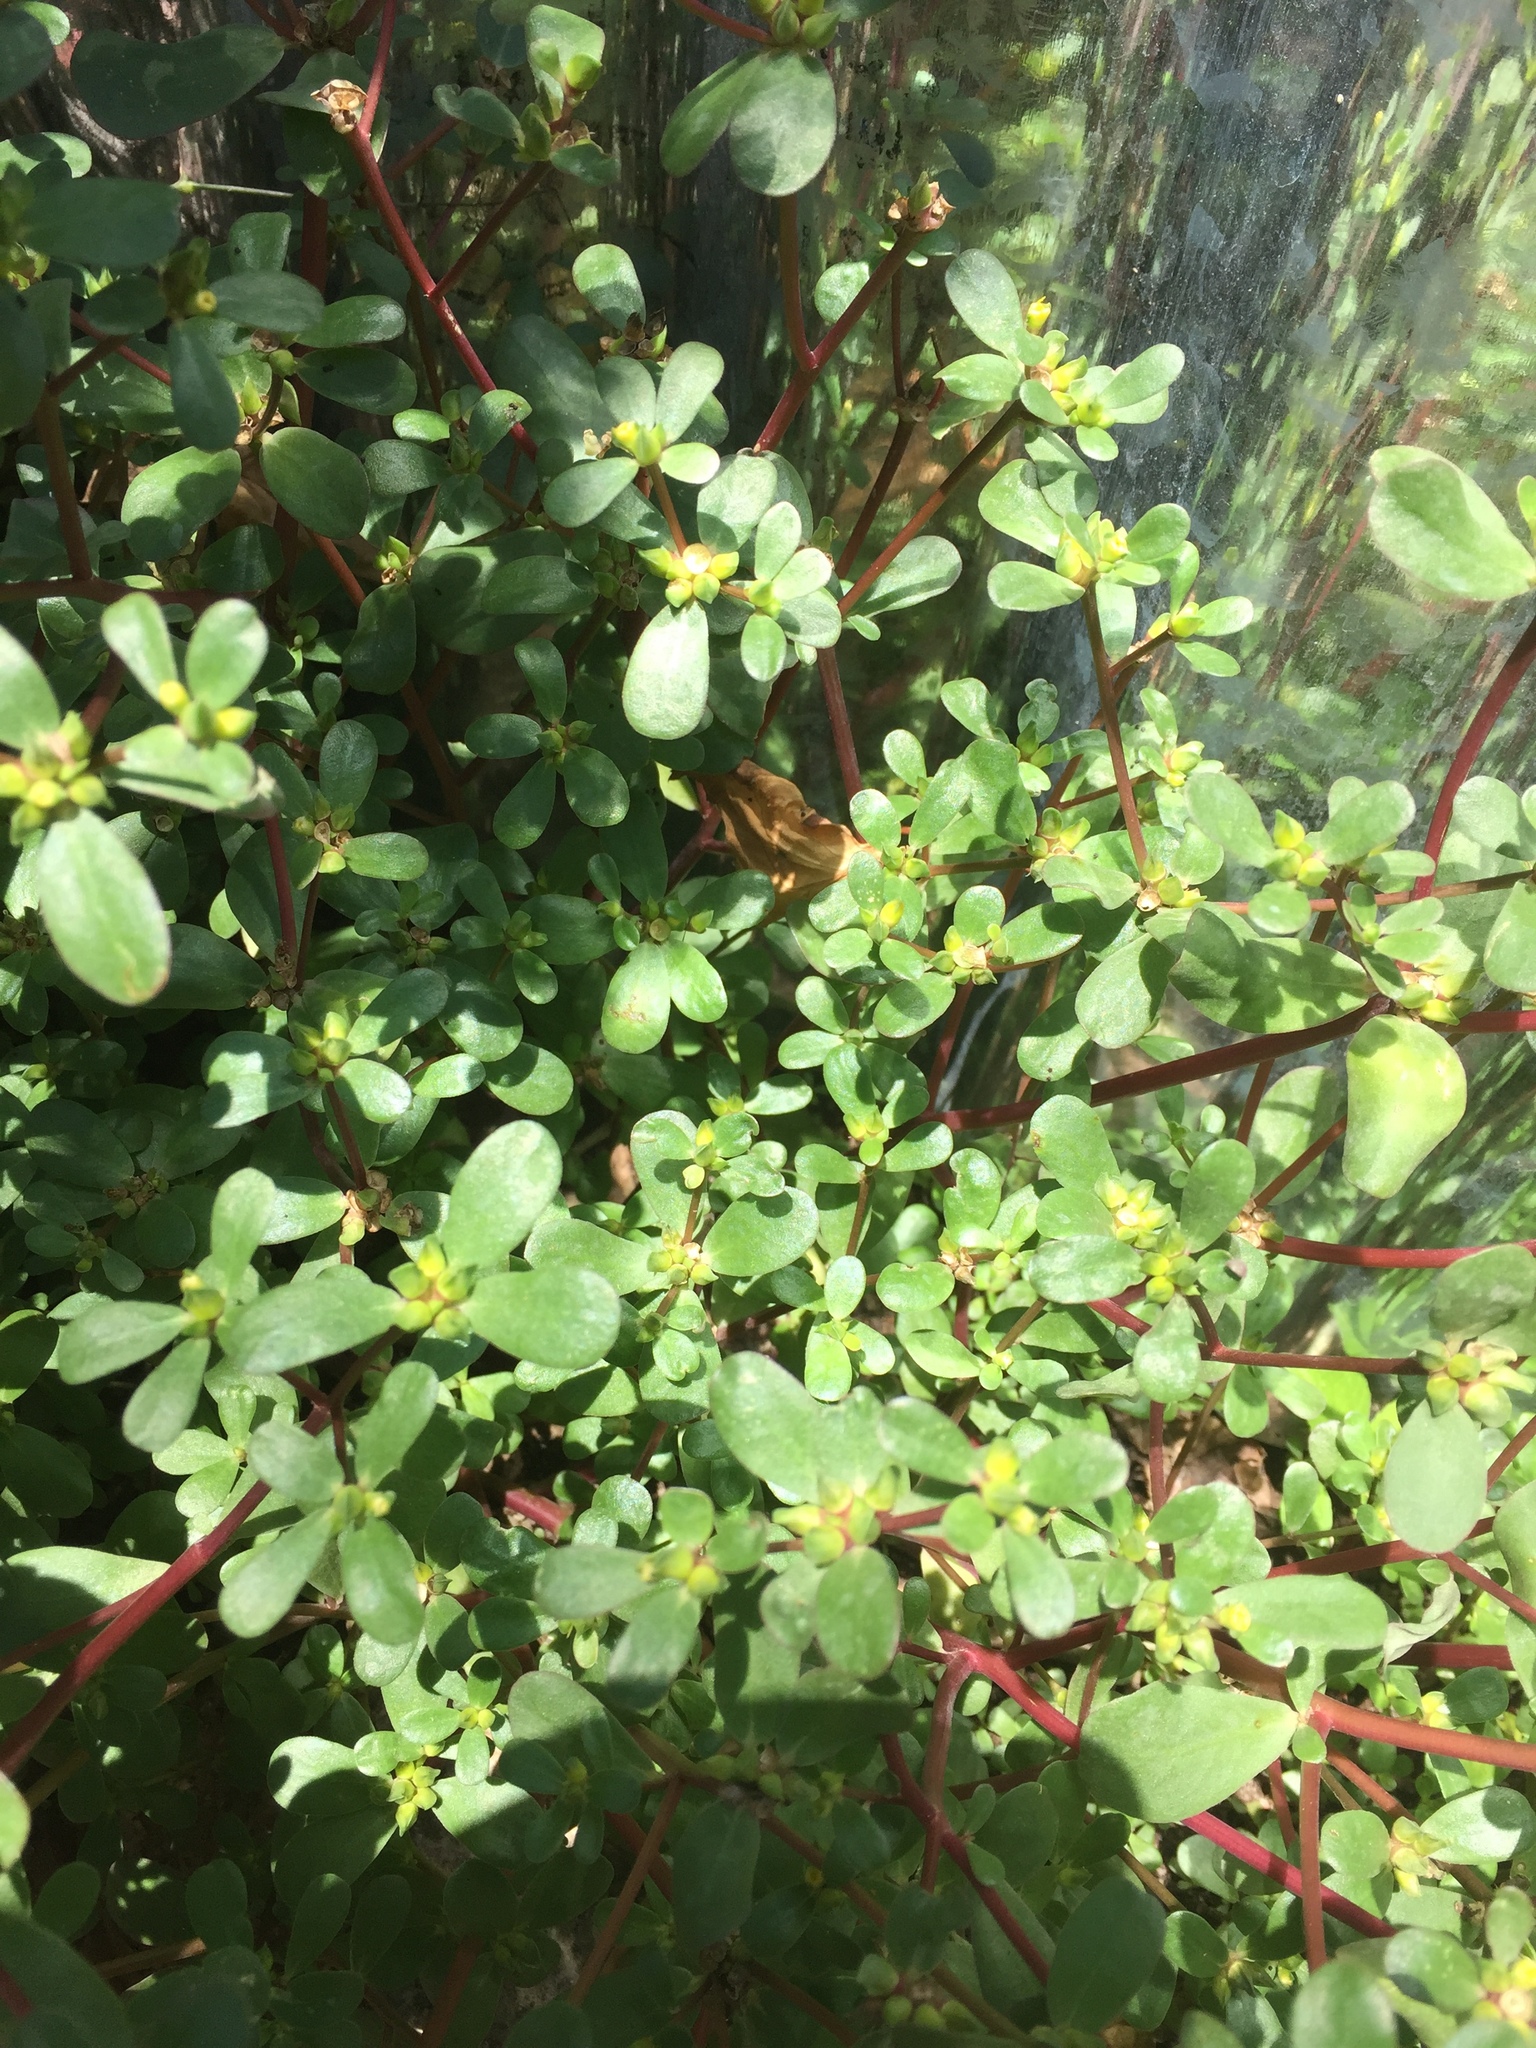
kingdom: Plantae
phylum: Tracheophyta
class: Magnoliopsida
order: Caryophyllales
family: Portulacaceae
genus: Portulaca
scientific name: Portulaca oleracea
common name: Common purslane
